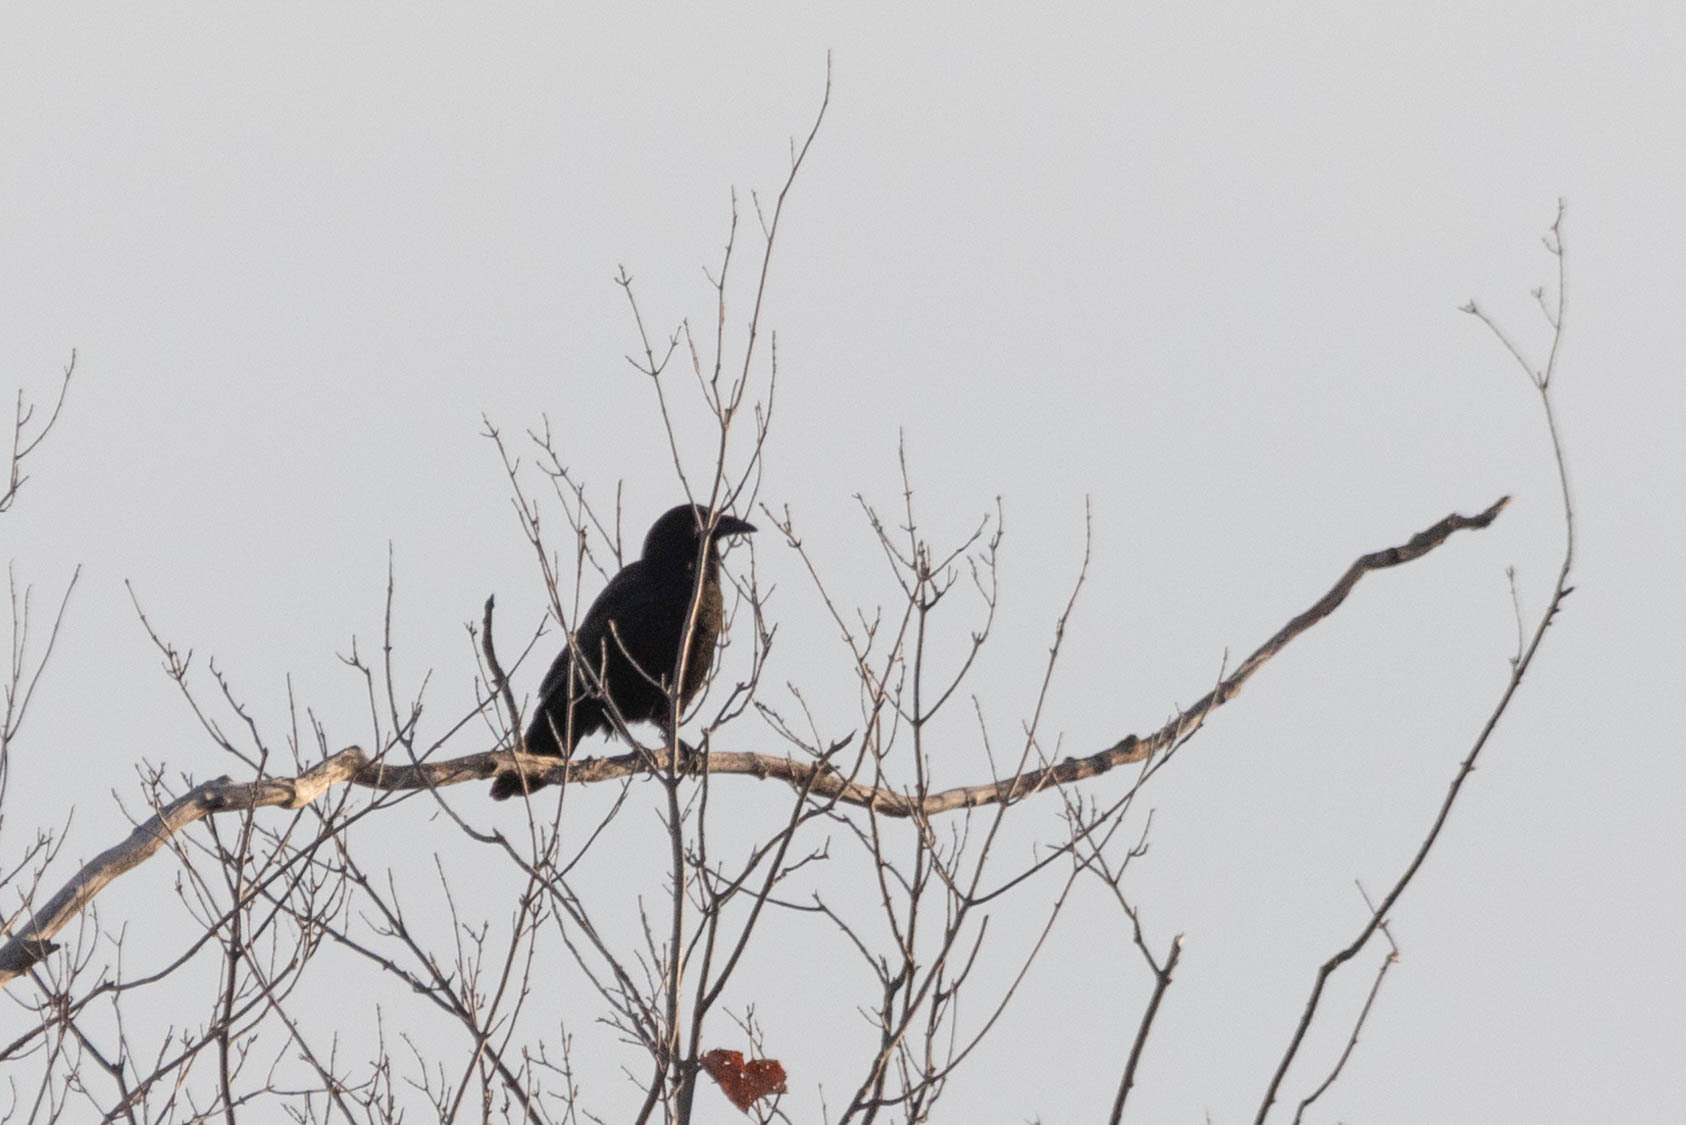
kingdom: Animalia
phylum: Chordata
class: Aves
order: Passeriformes
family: Corvidae
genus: Corvus
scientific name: Corvus brachyrhynchos
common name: American crow
